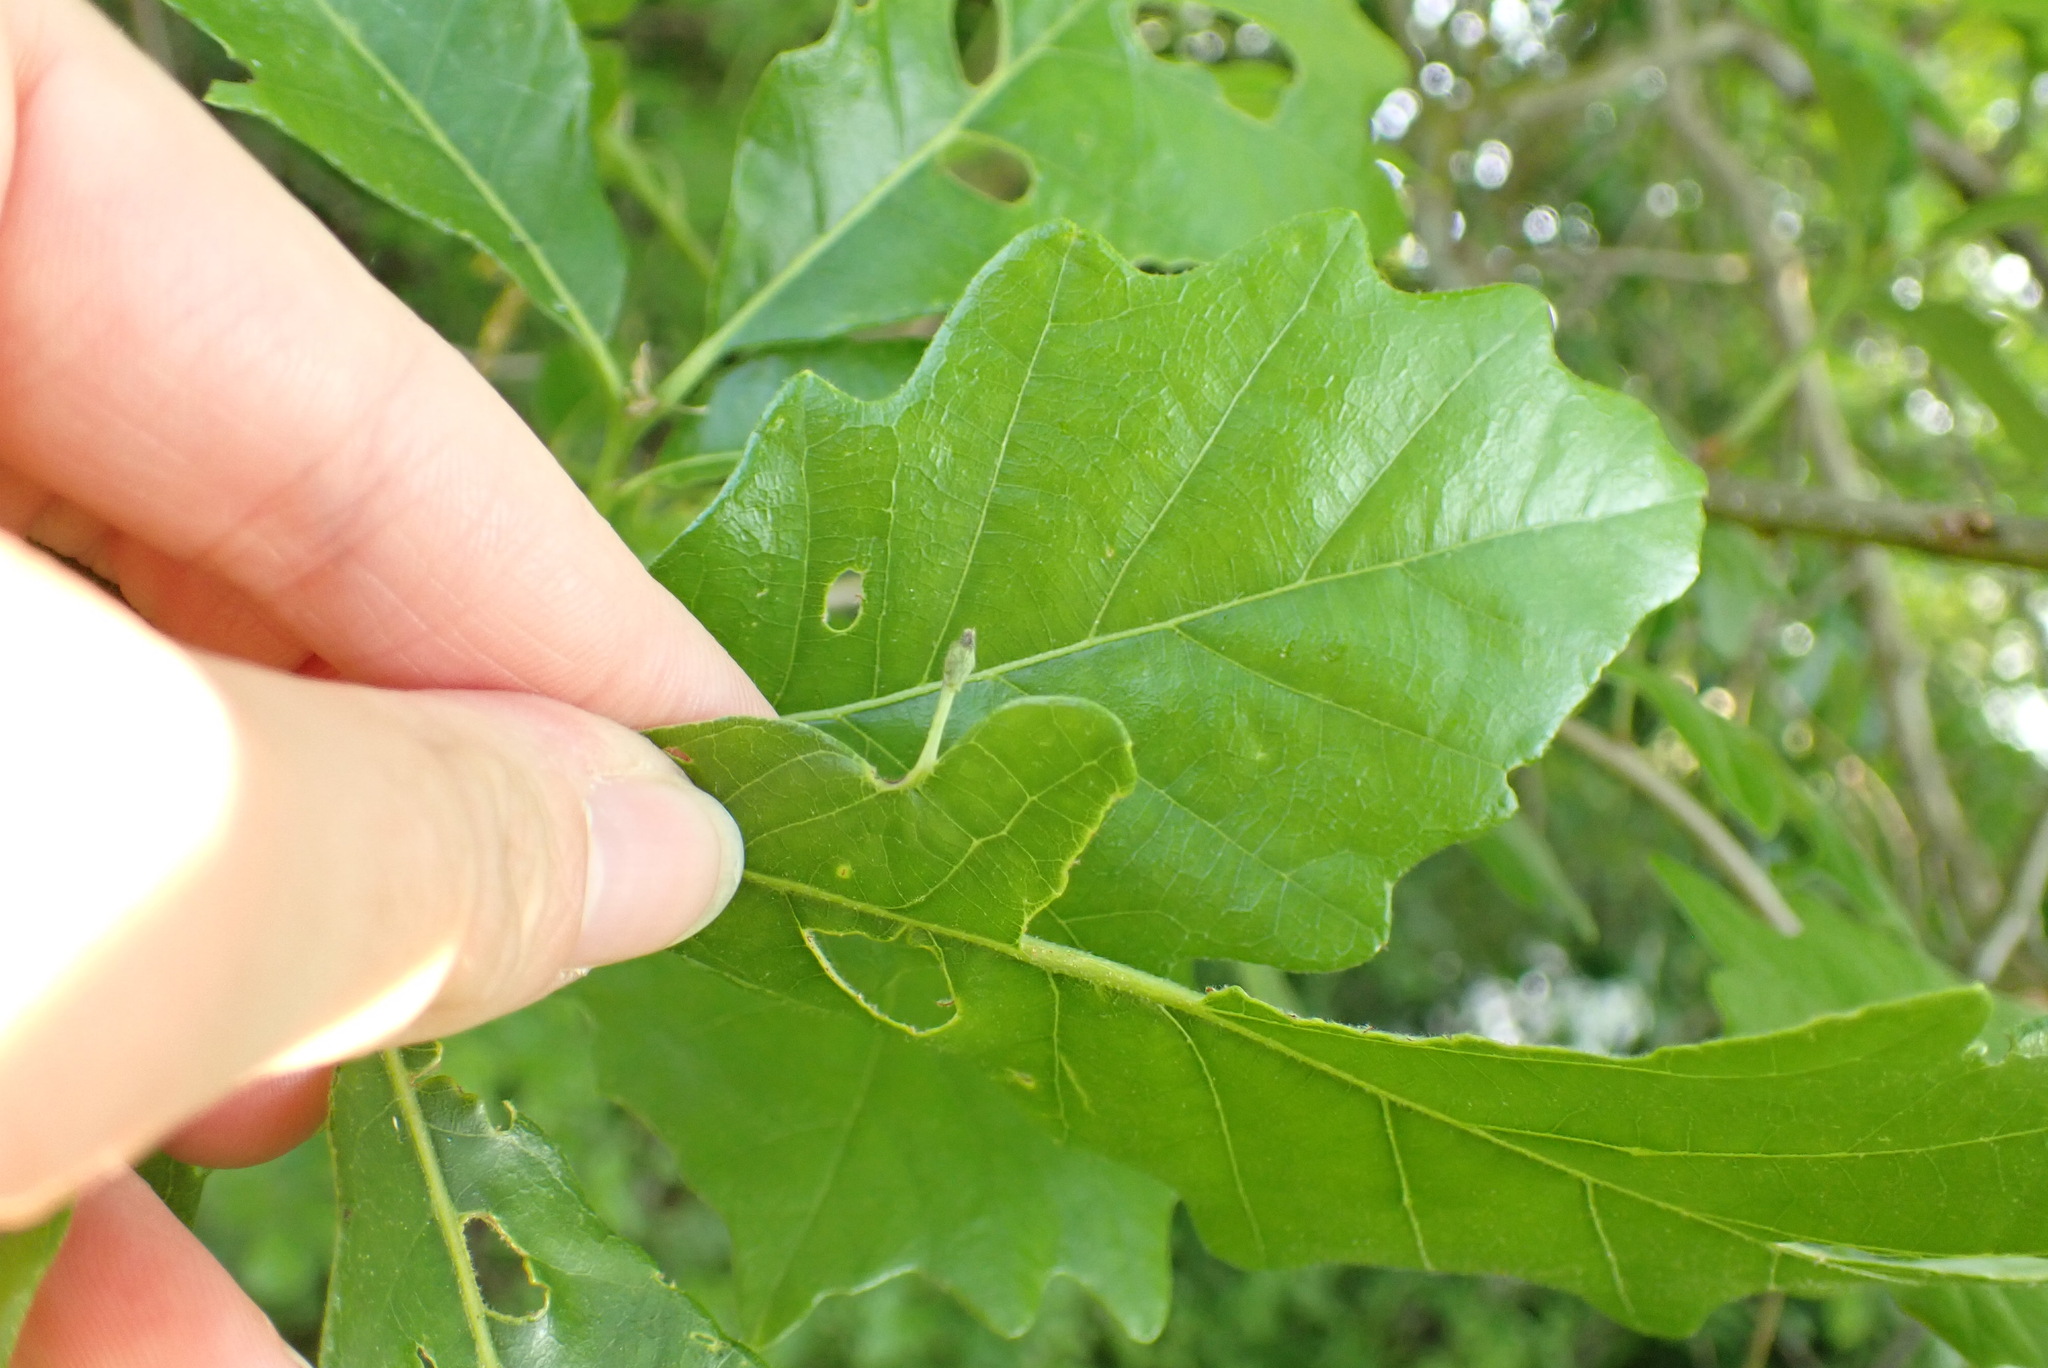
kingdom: Animalia
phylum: Arthropoda
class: Insecta
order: Hymenoptera
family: Cynipidae
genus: Andricus
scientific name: Andricus
